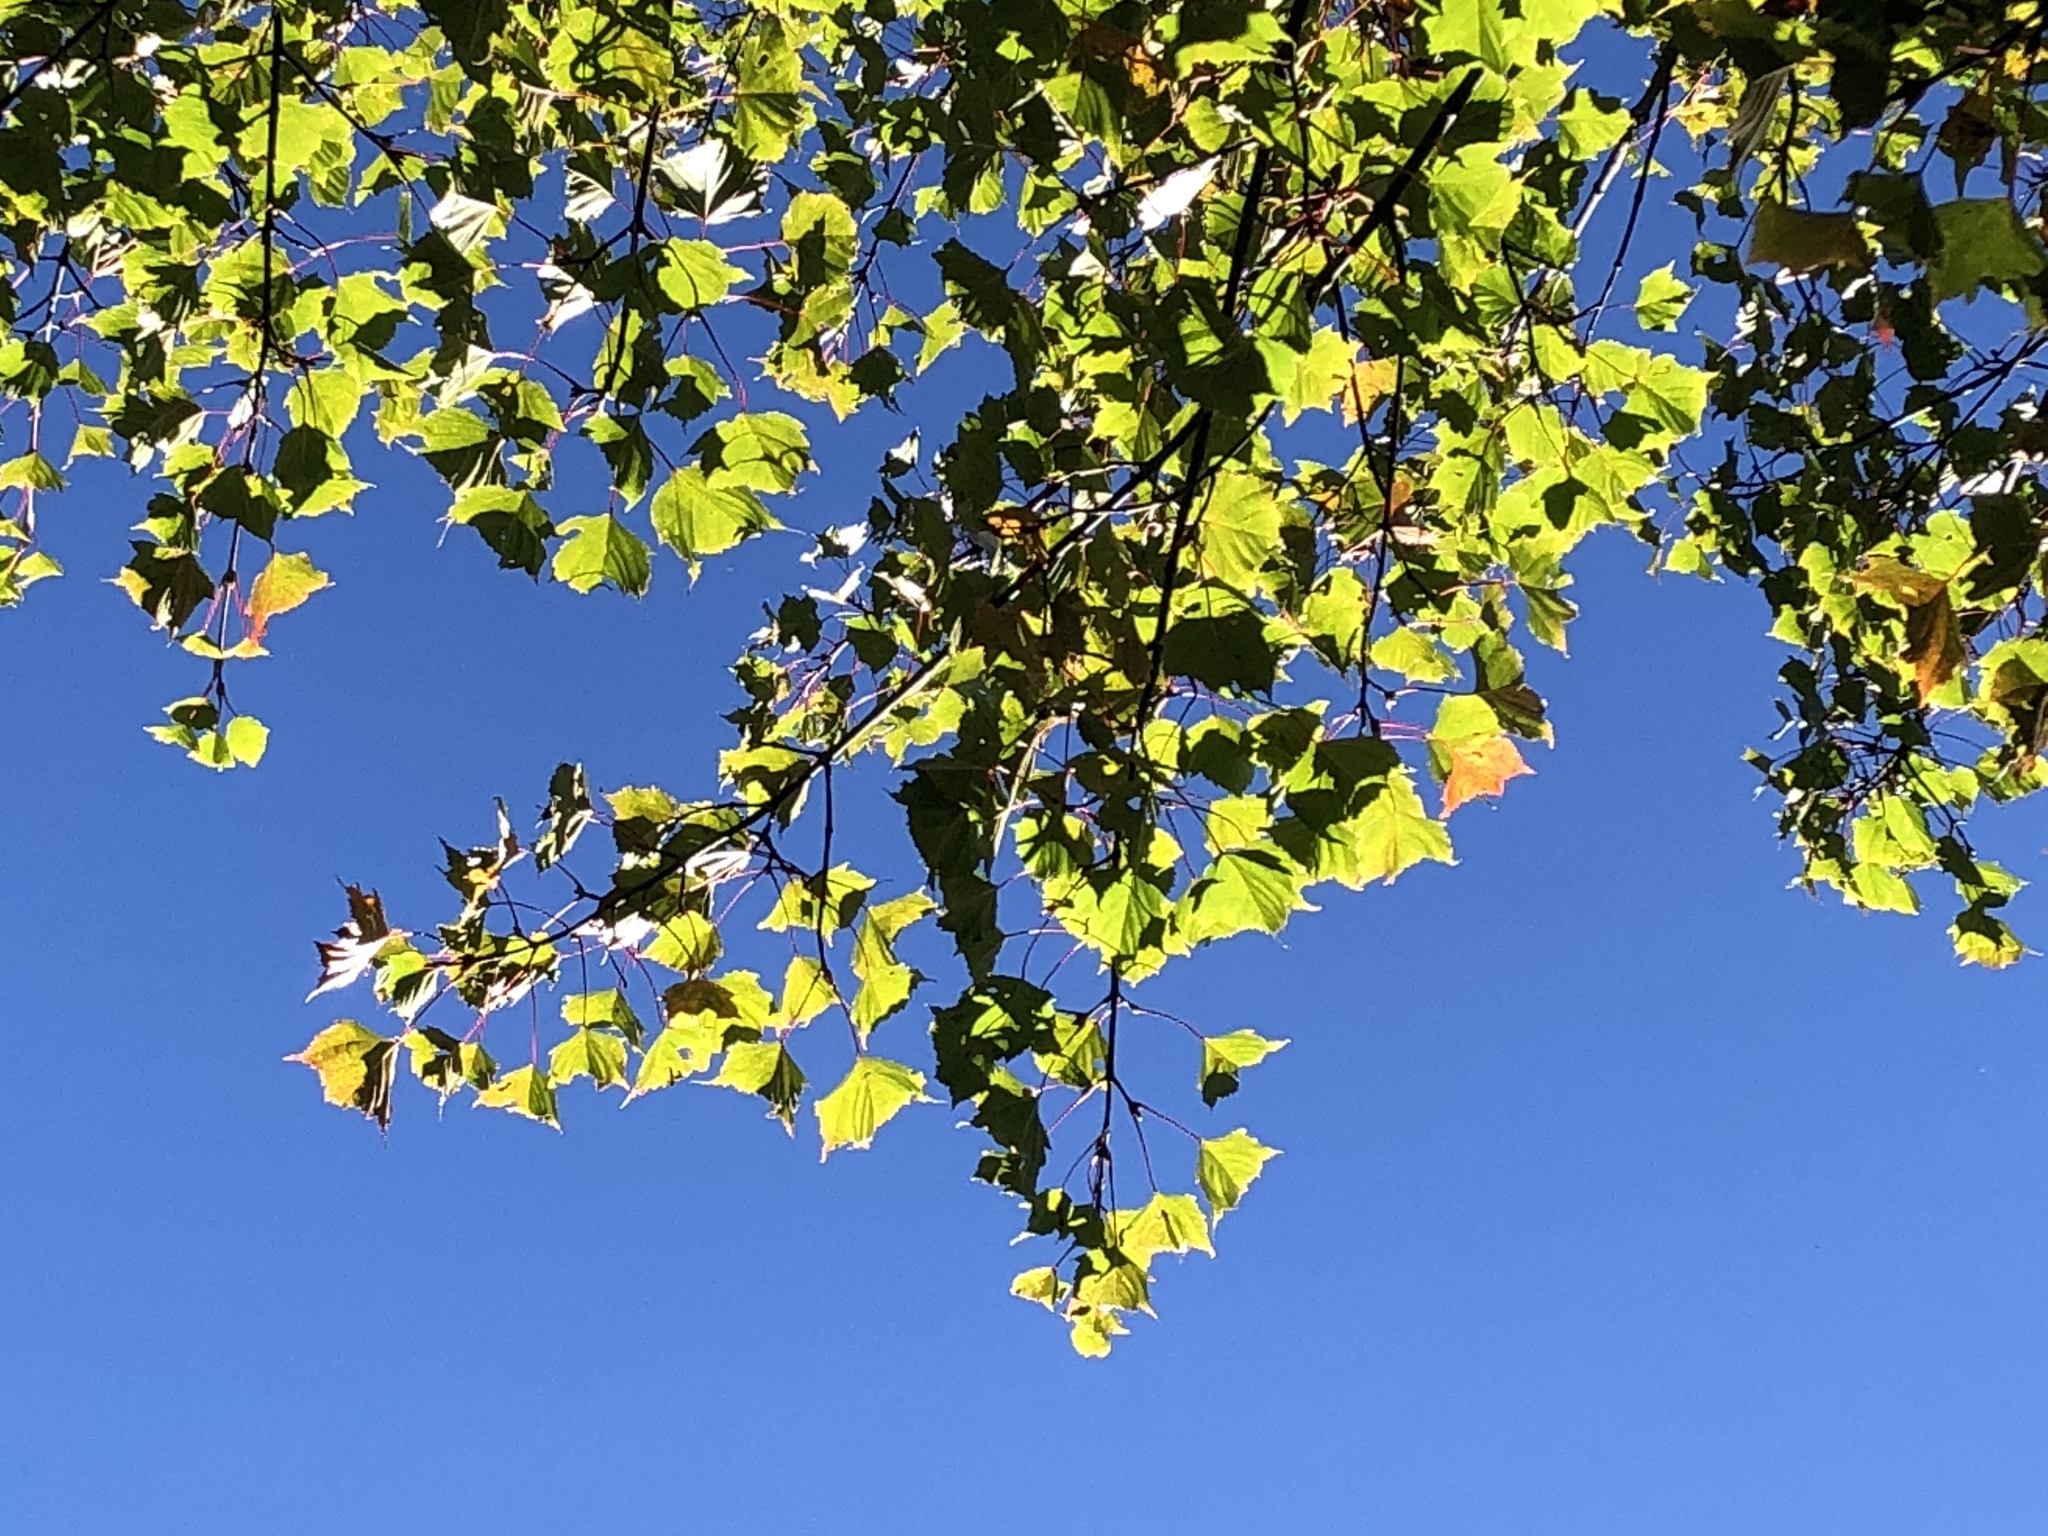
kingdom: Plantae
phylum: Tracheophyta
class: Magnoliopsida
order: Sapindales
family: Sapindaceae
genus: Acer
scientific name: Acer caudatifolium
